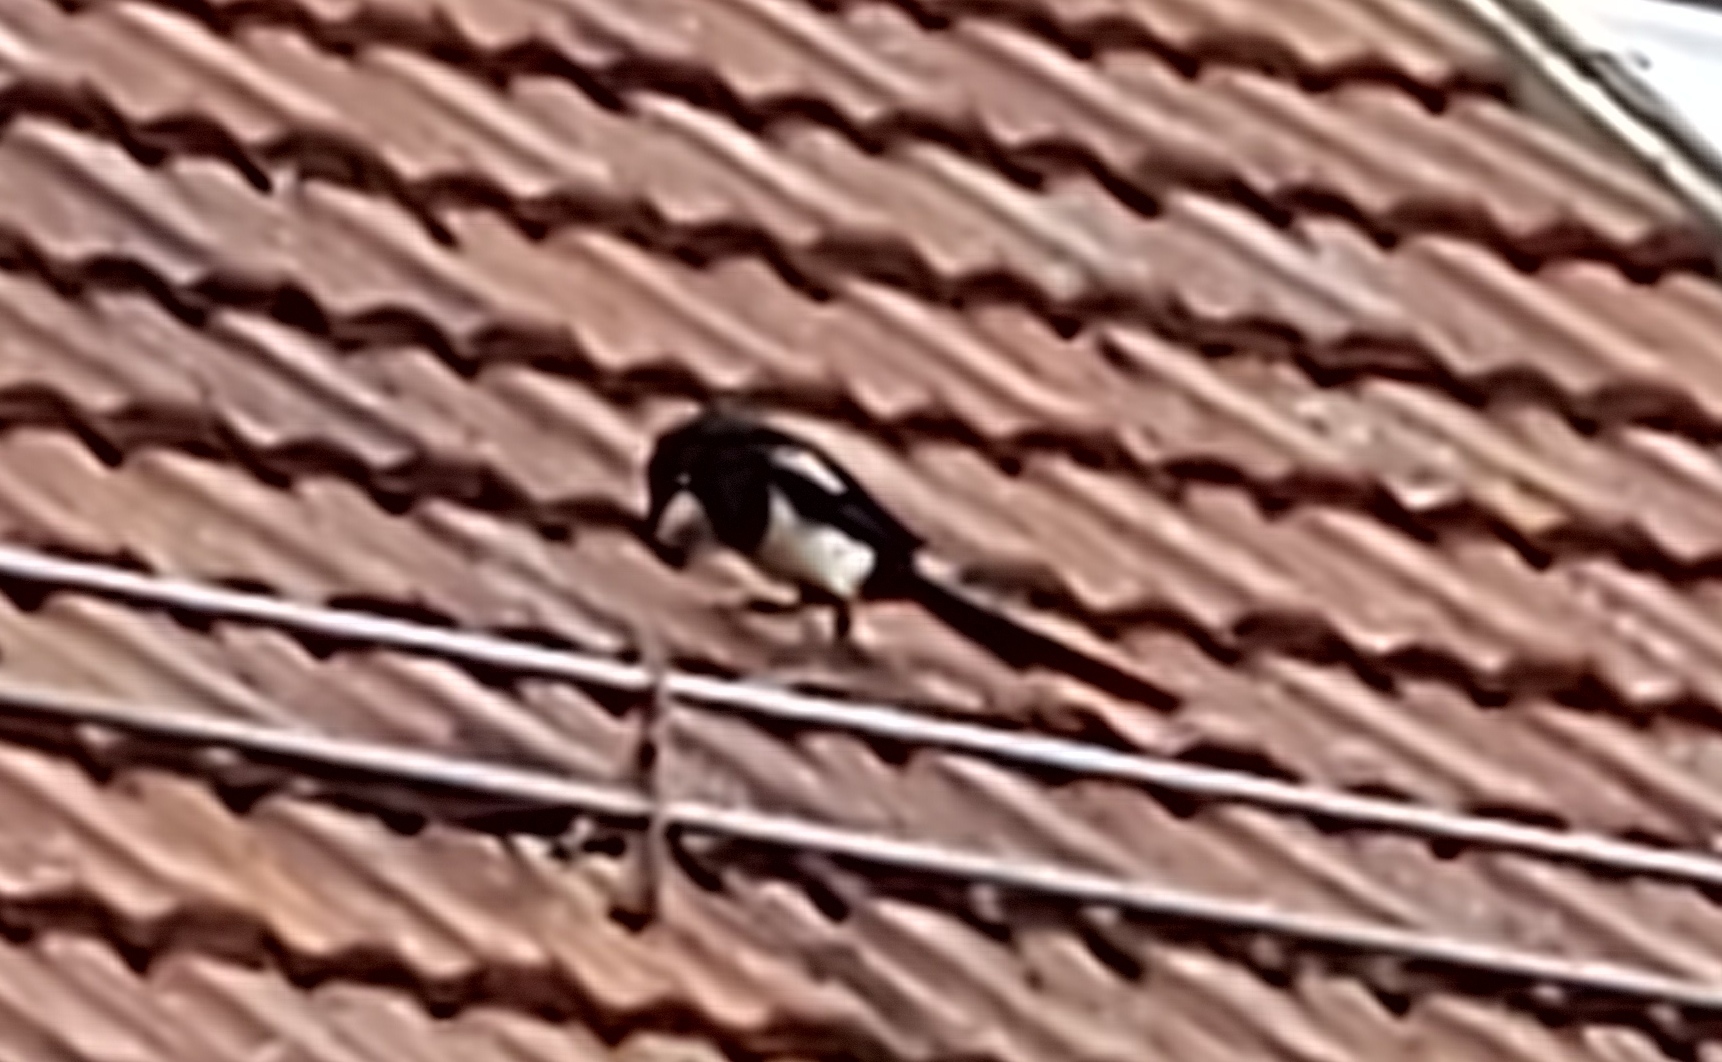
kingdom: Animalia
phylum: Chordata
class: Aves
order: Passeriformes
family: Corvidae
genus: Pica
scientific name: Pica pica
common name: Eurasian magpie
